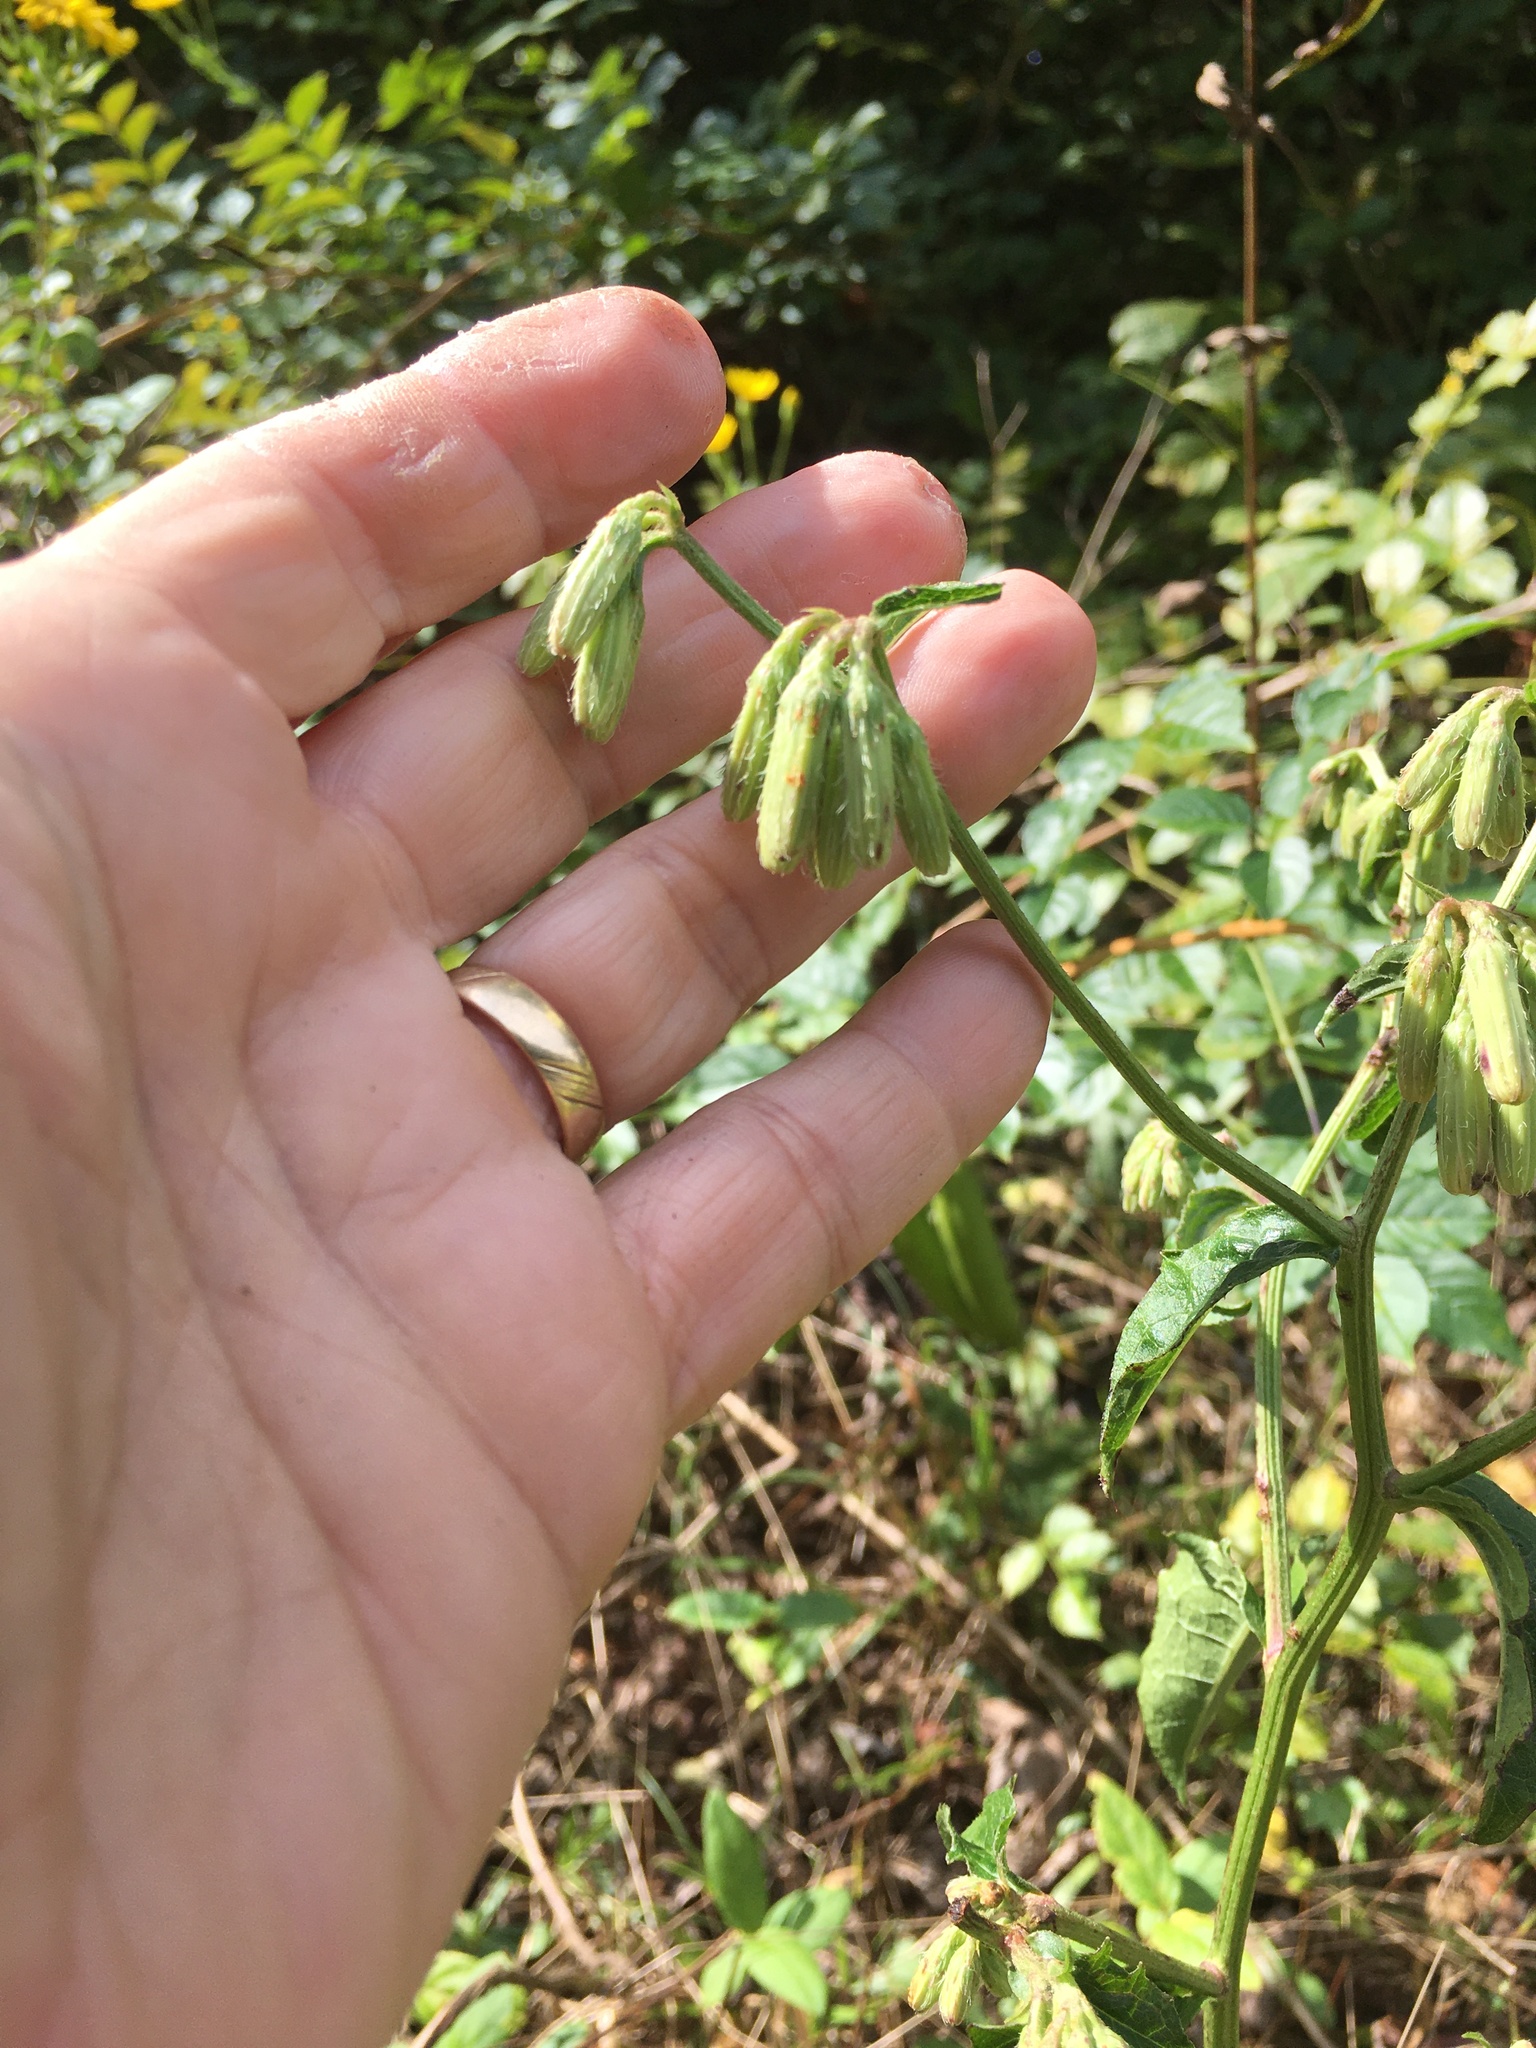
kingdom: Plantae
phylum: Tracheophyta
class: Magnoliopsida
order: Asterales
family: Asteraceae
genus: Nabalus
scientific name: Nabalus serpentarius
